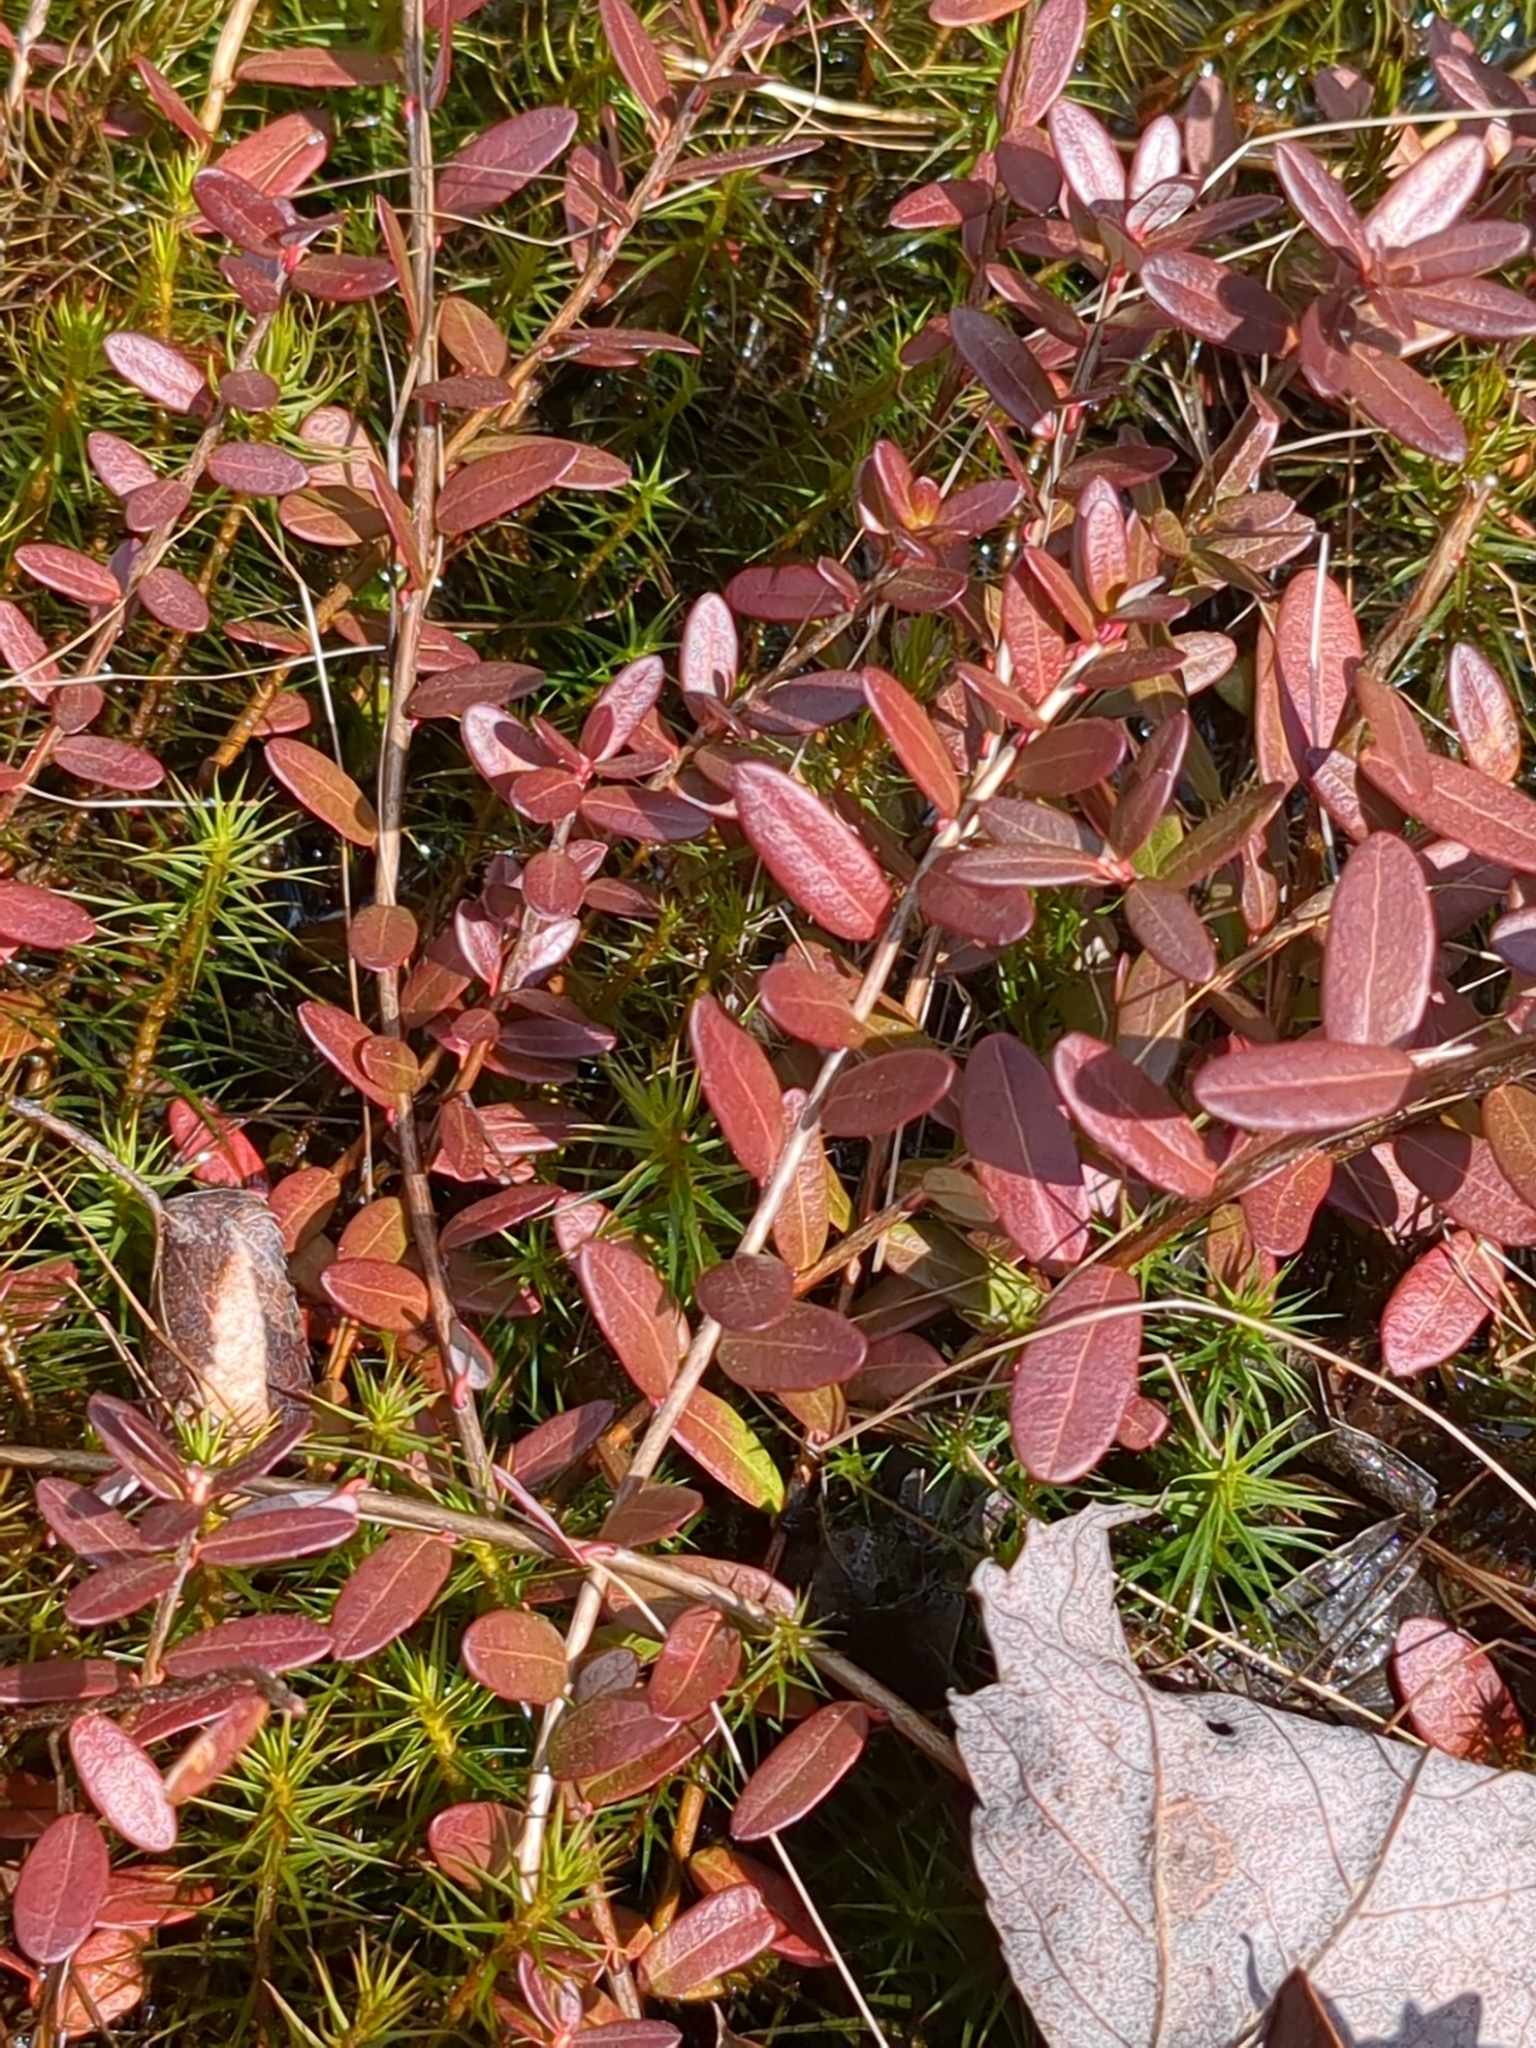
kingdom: Plantae
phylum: Tracheophyta
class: Magnoliopsida
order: Ericales
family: Ericaceae
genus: Vaccinium
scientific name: Vaccinium macrocarpon
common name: American cranberry
